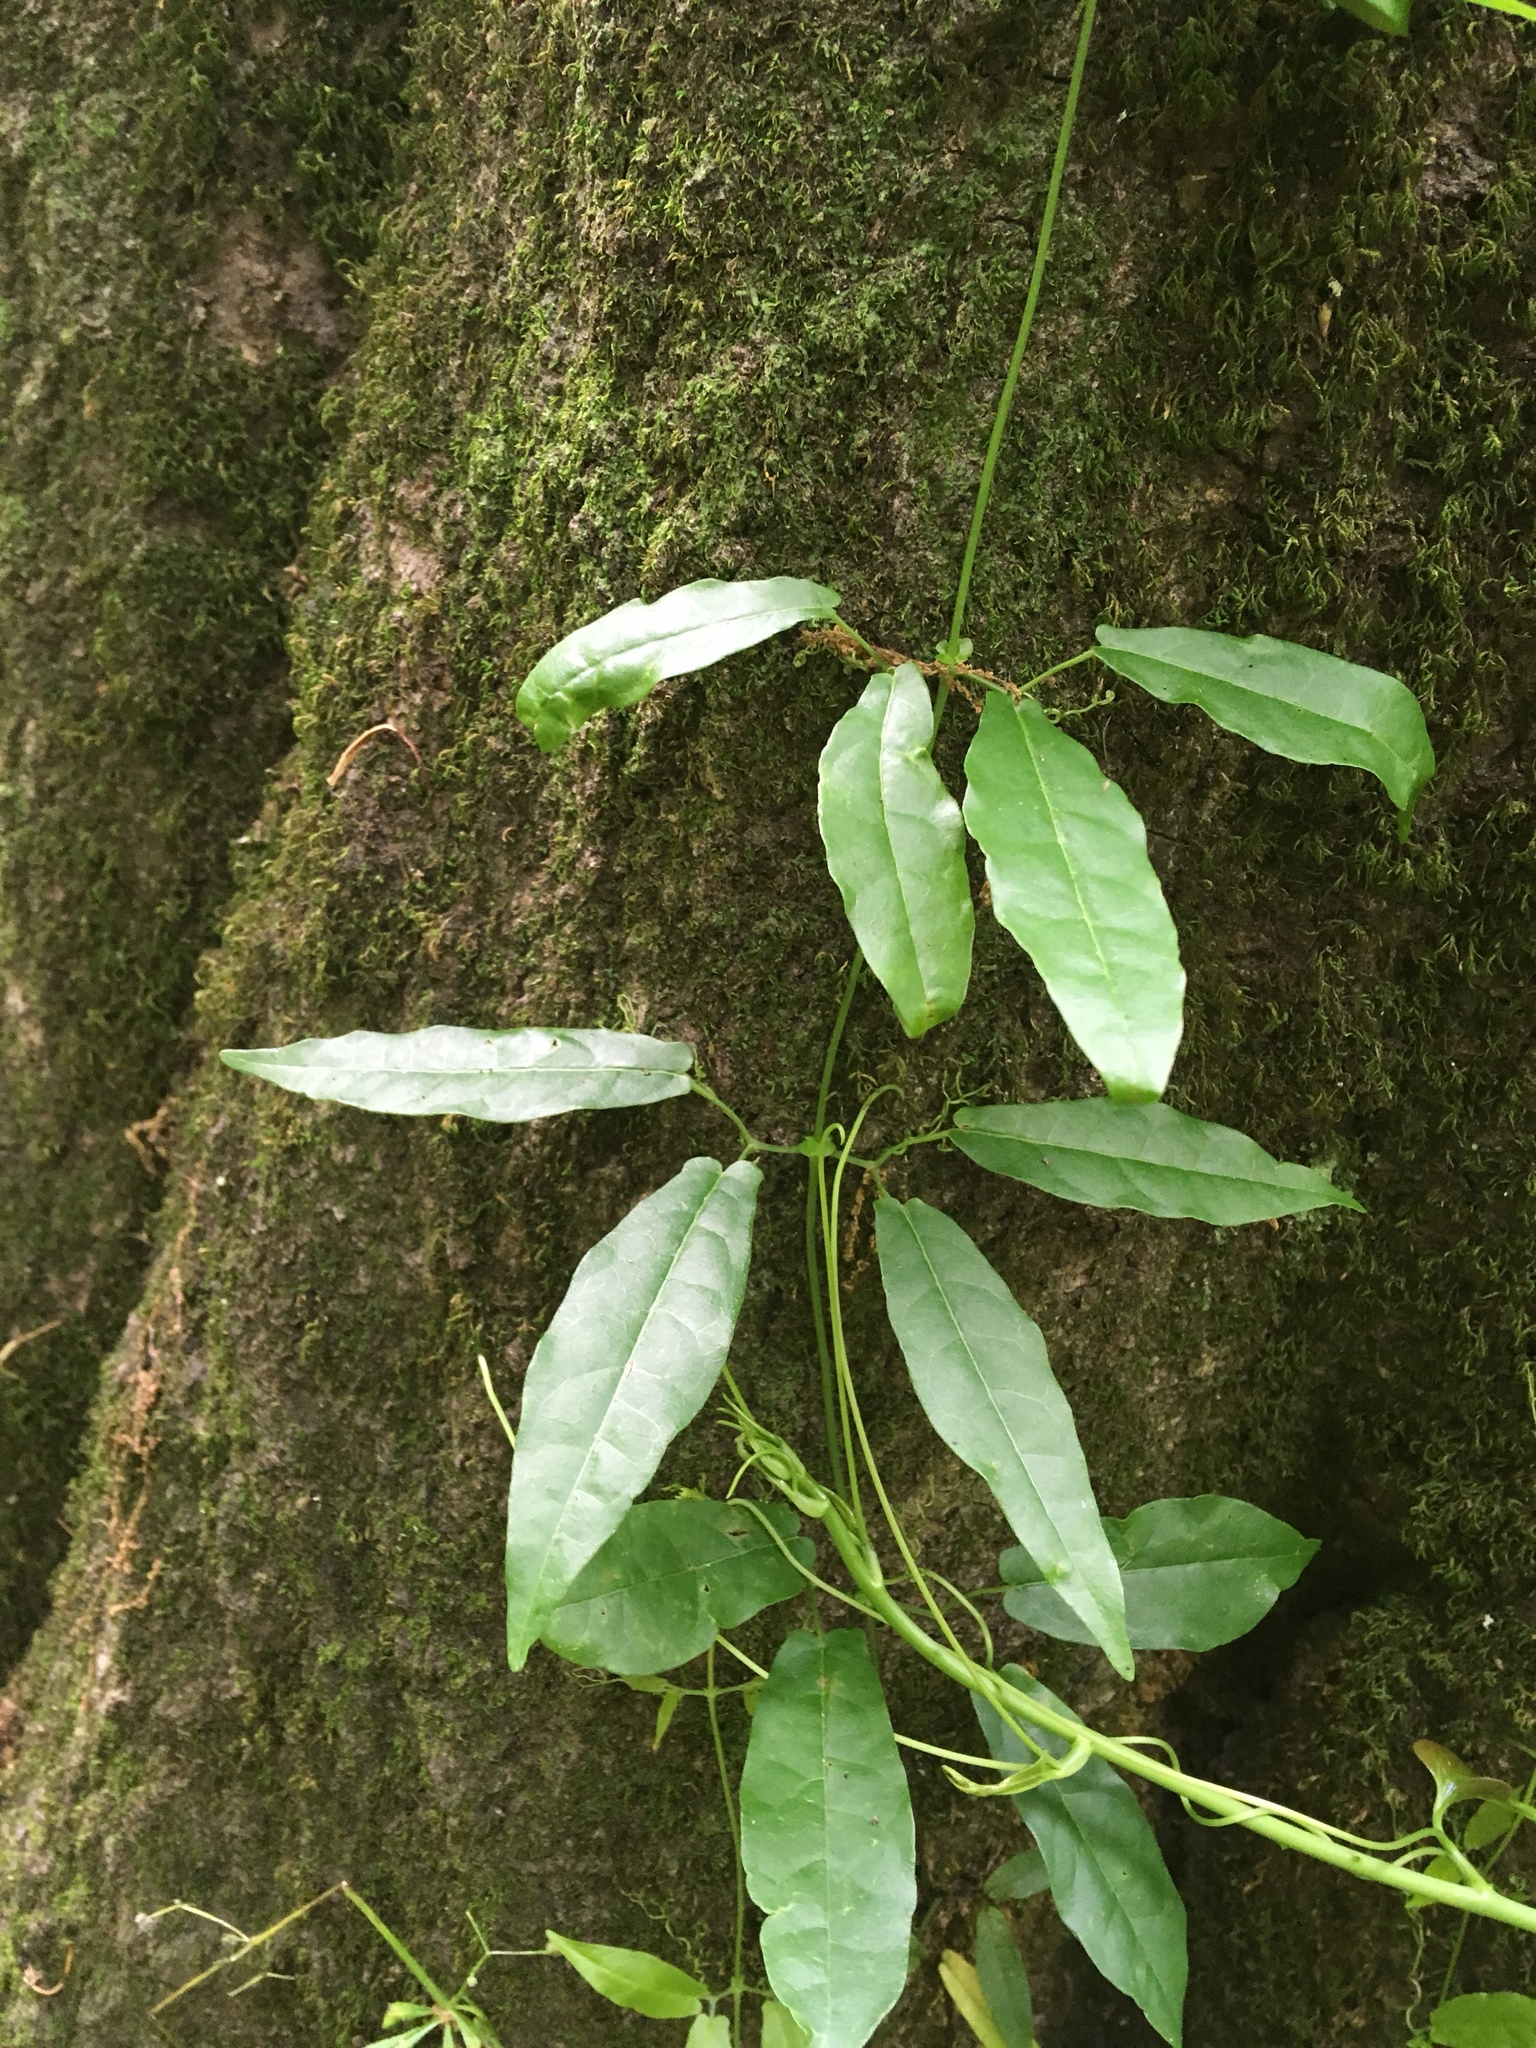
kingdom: Plantae
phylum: Tracheophyta
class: Magnoliopsida
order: Lamiales
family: Bignoniaceae
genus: Bignonia
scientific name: Bignonia capreolata
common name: Crossvine
